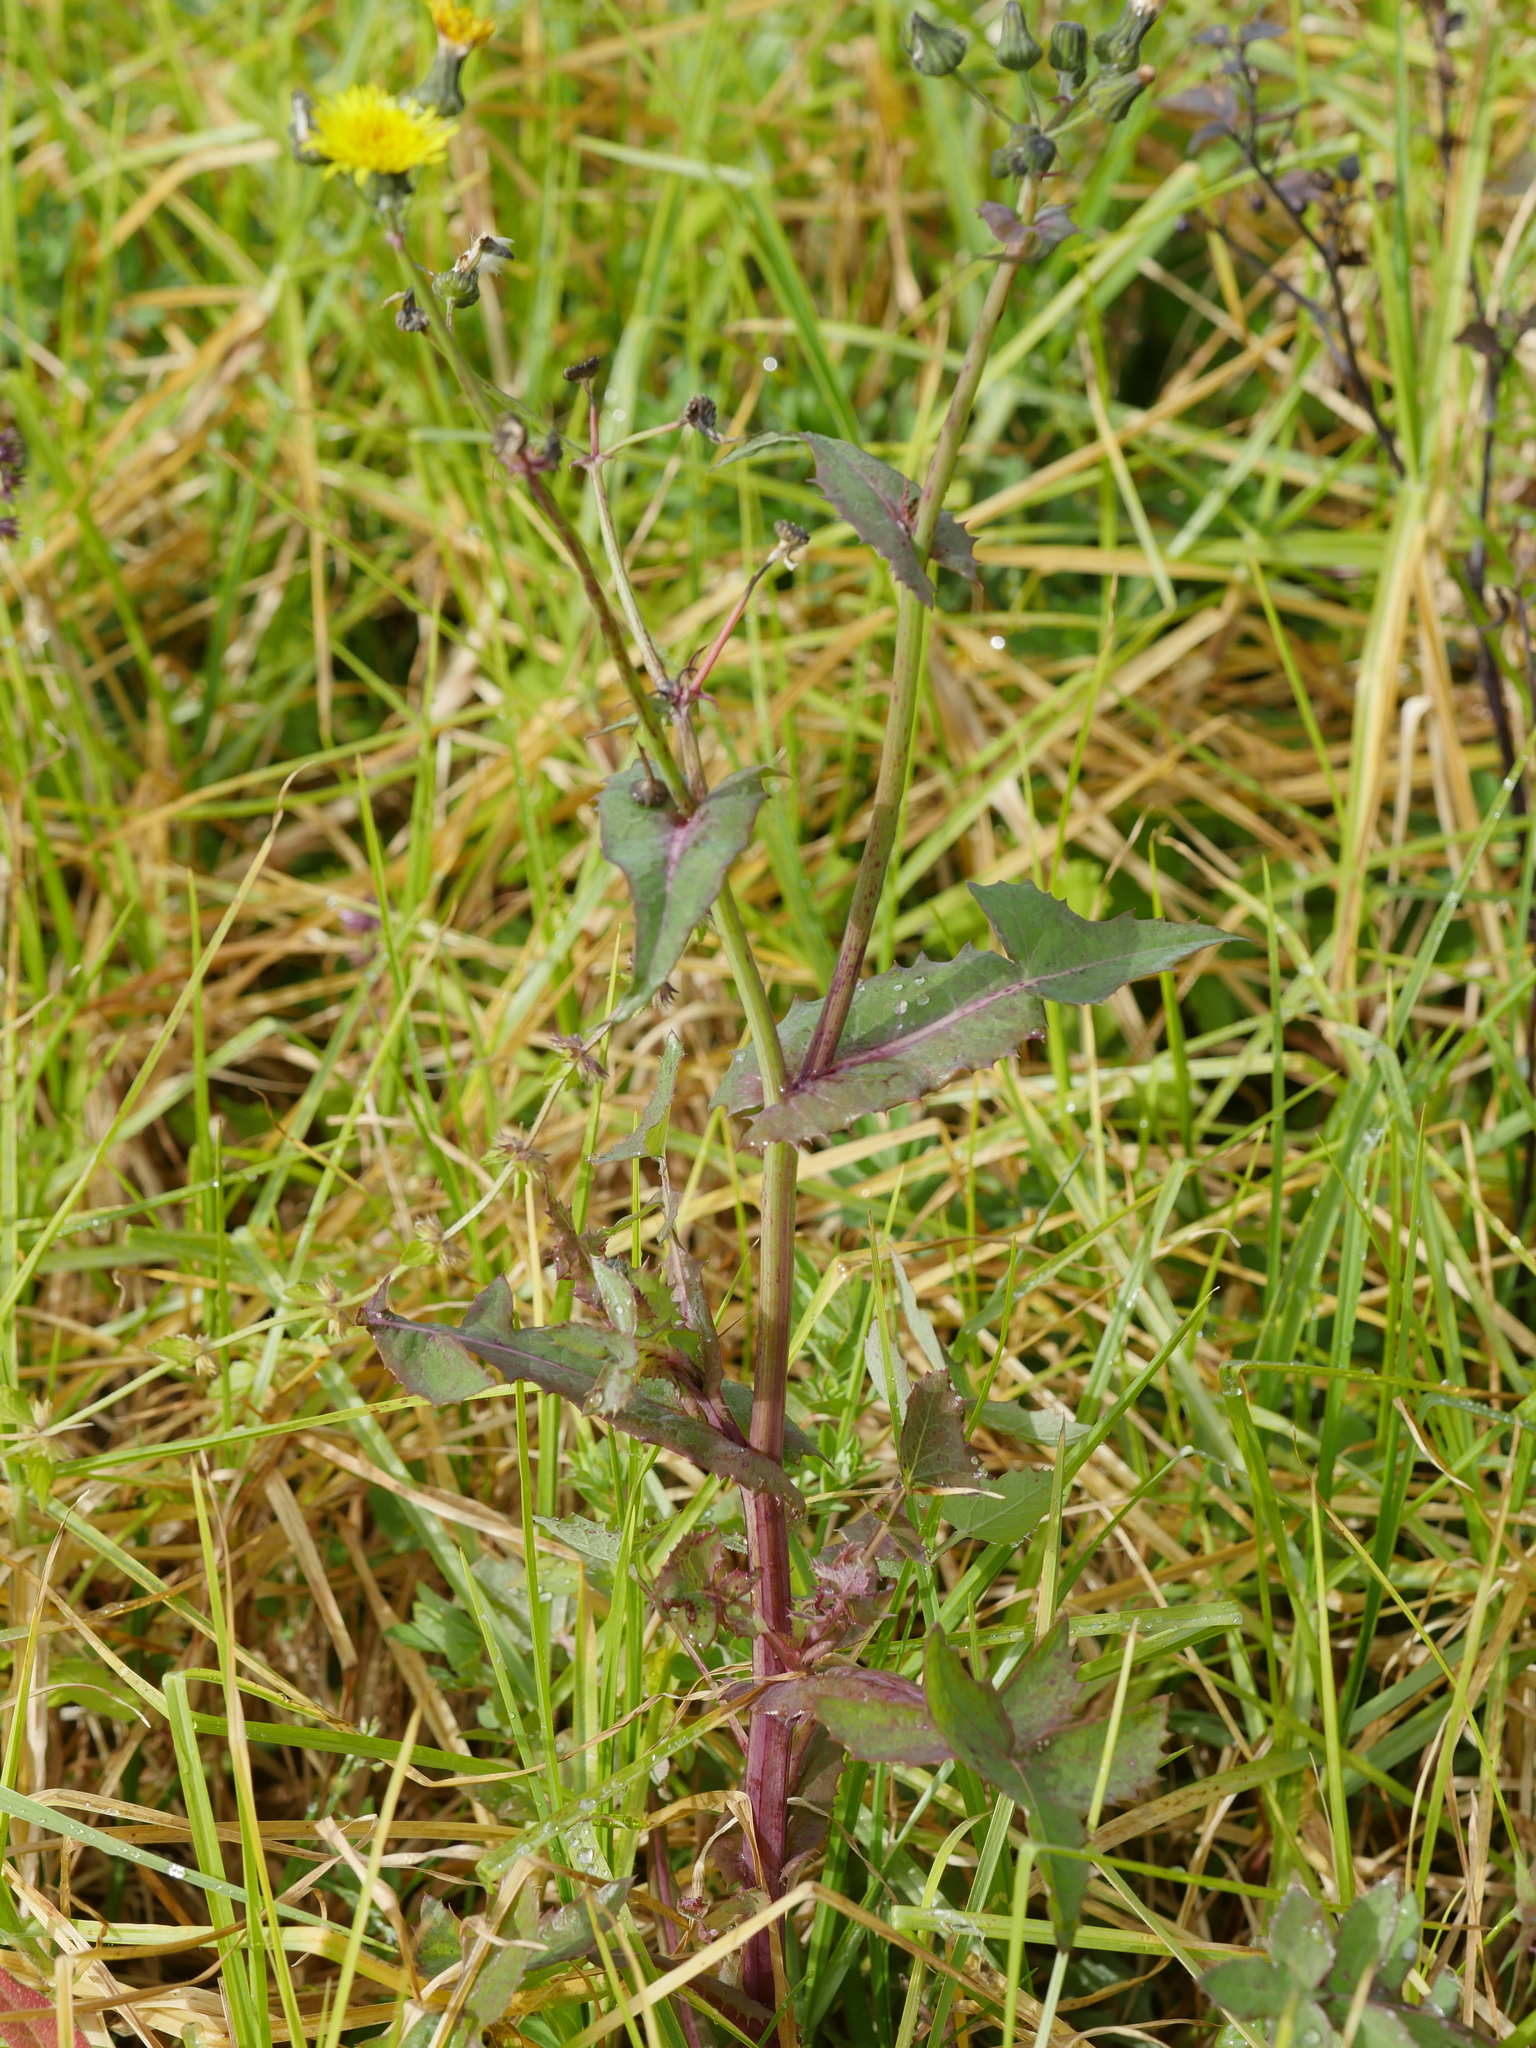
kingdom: Plantae
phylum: Tracheophyta
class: Magnoliopsida
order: Asterales
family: Asteraceae
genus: Sonchus
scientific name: Sonchus oleraceus
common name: Common sowthistle
